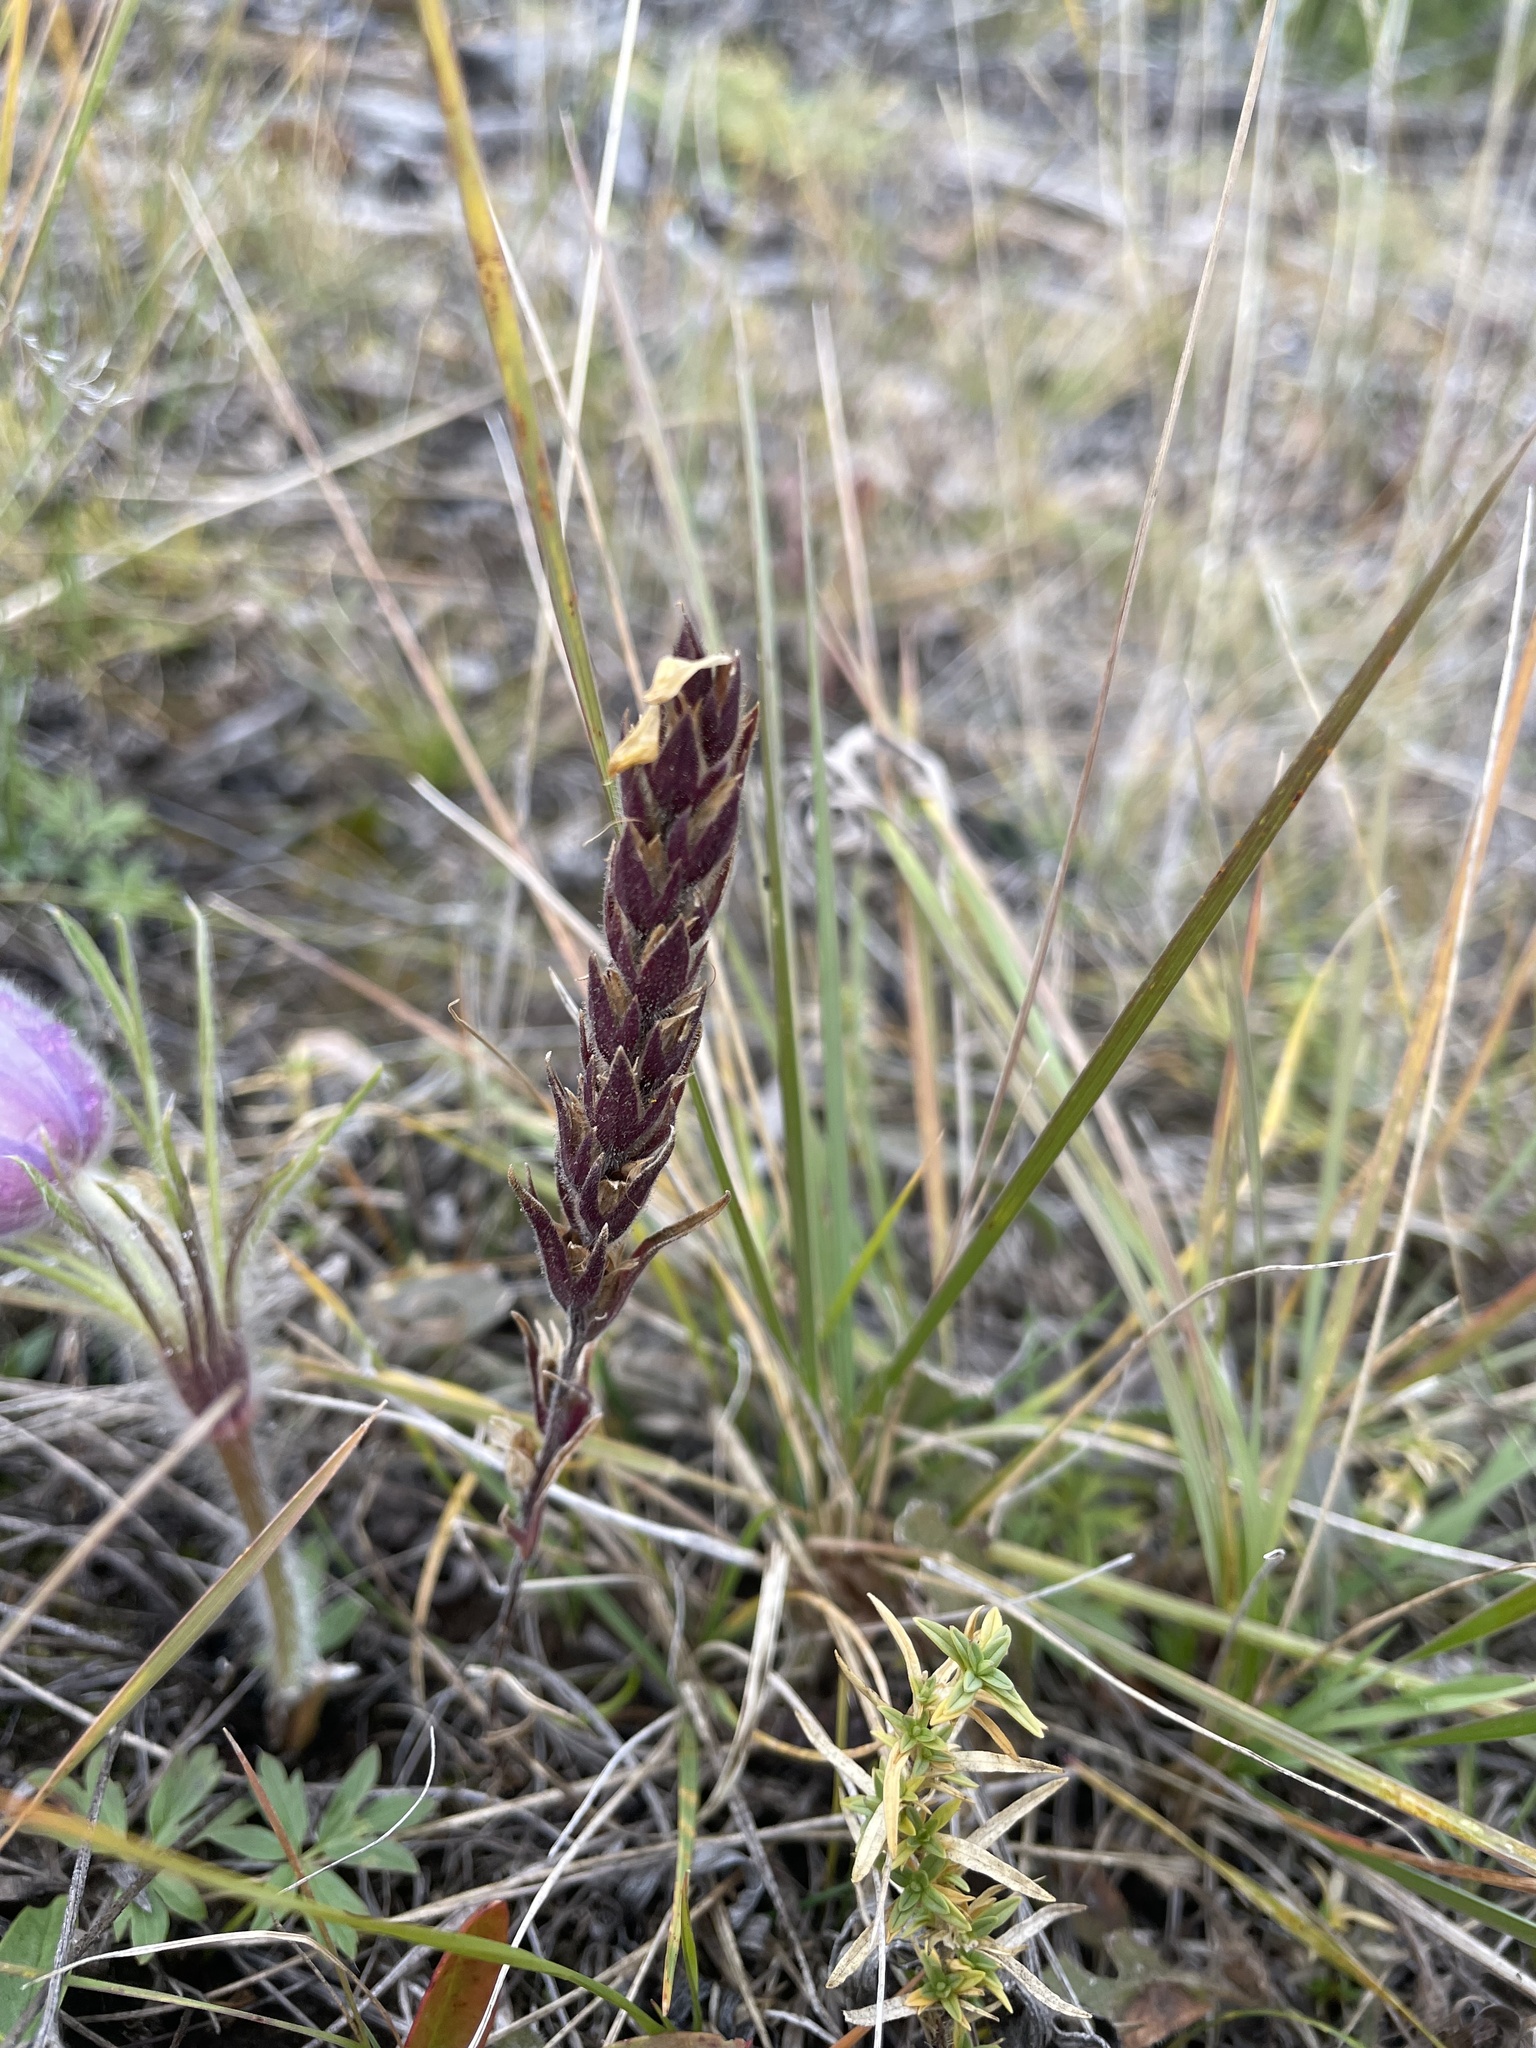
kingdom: Plantae
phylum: Tracheophyta
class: Magnoliopsida
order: Lamiales
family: Orobanchaceae
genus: Orthocarpus
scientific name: Orthocarpus luteus
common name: Golden-tongue owl's-clover
